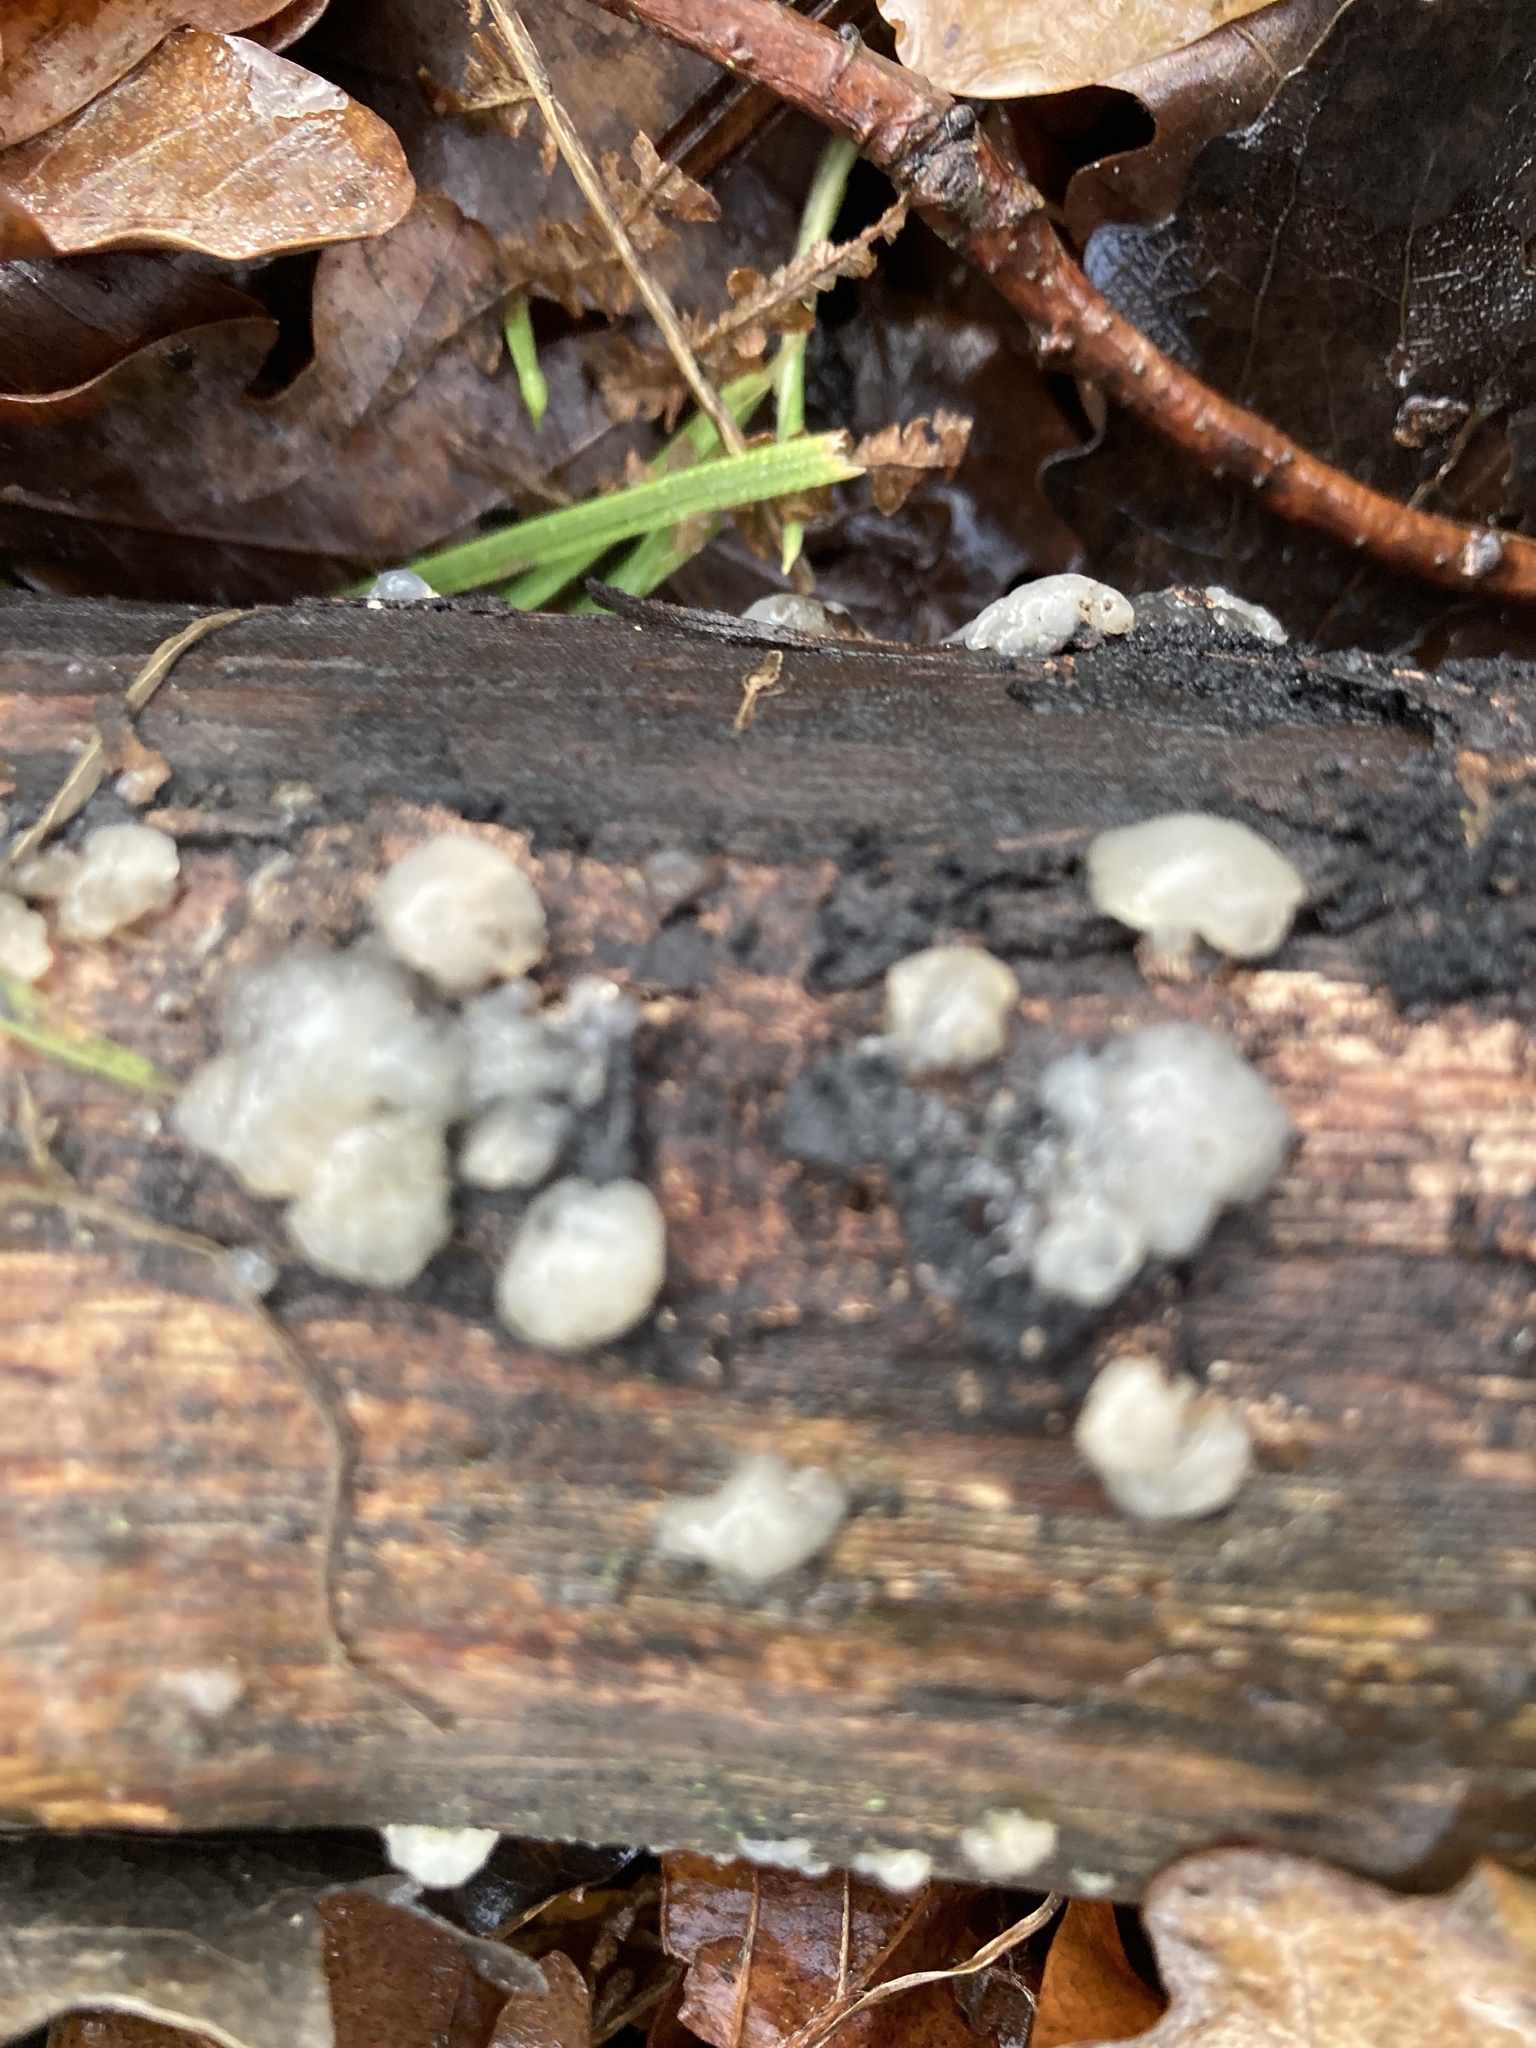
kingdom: Fungi
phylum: Basidiomycota
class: Agaricomycetes
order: Auriculariales
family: Hyaloriaceae
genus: Myxarium
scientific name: Myxarium nucleatum
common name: Crystal brain fungus
